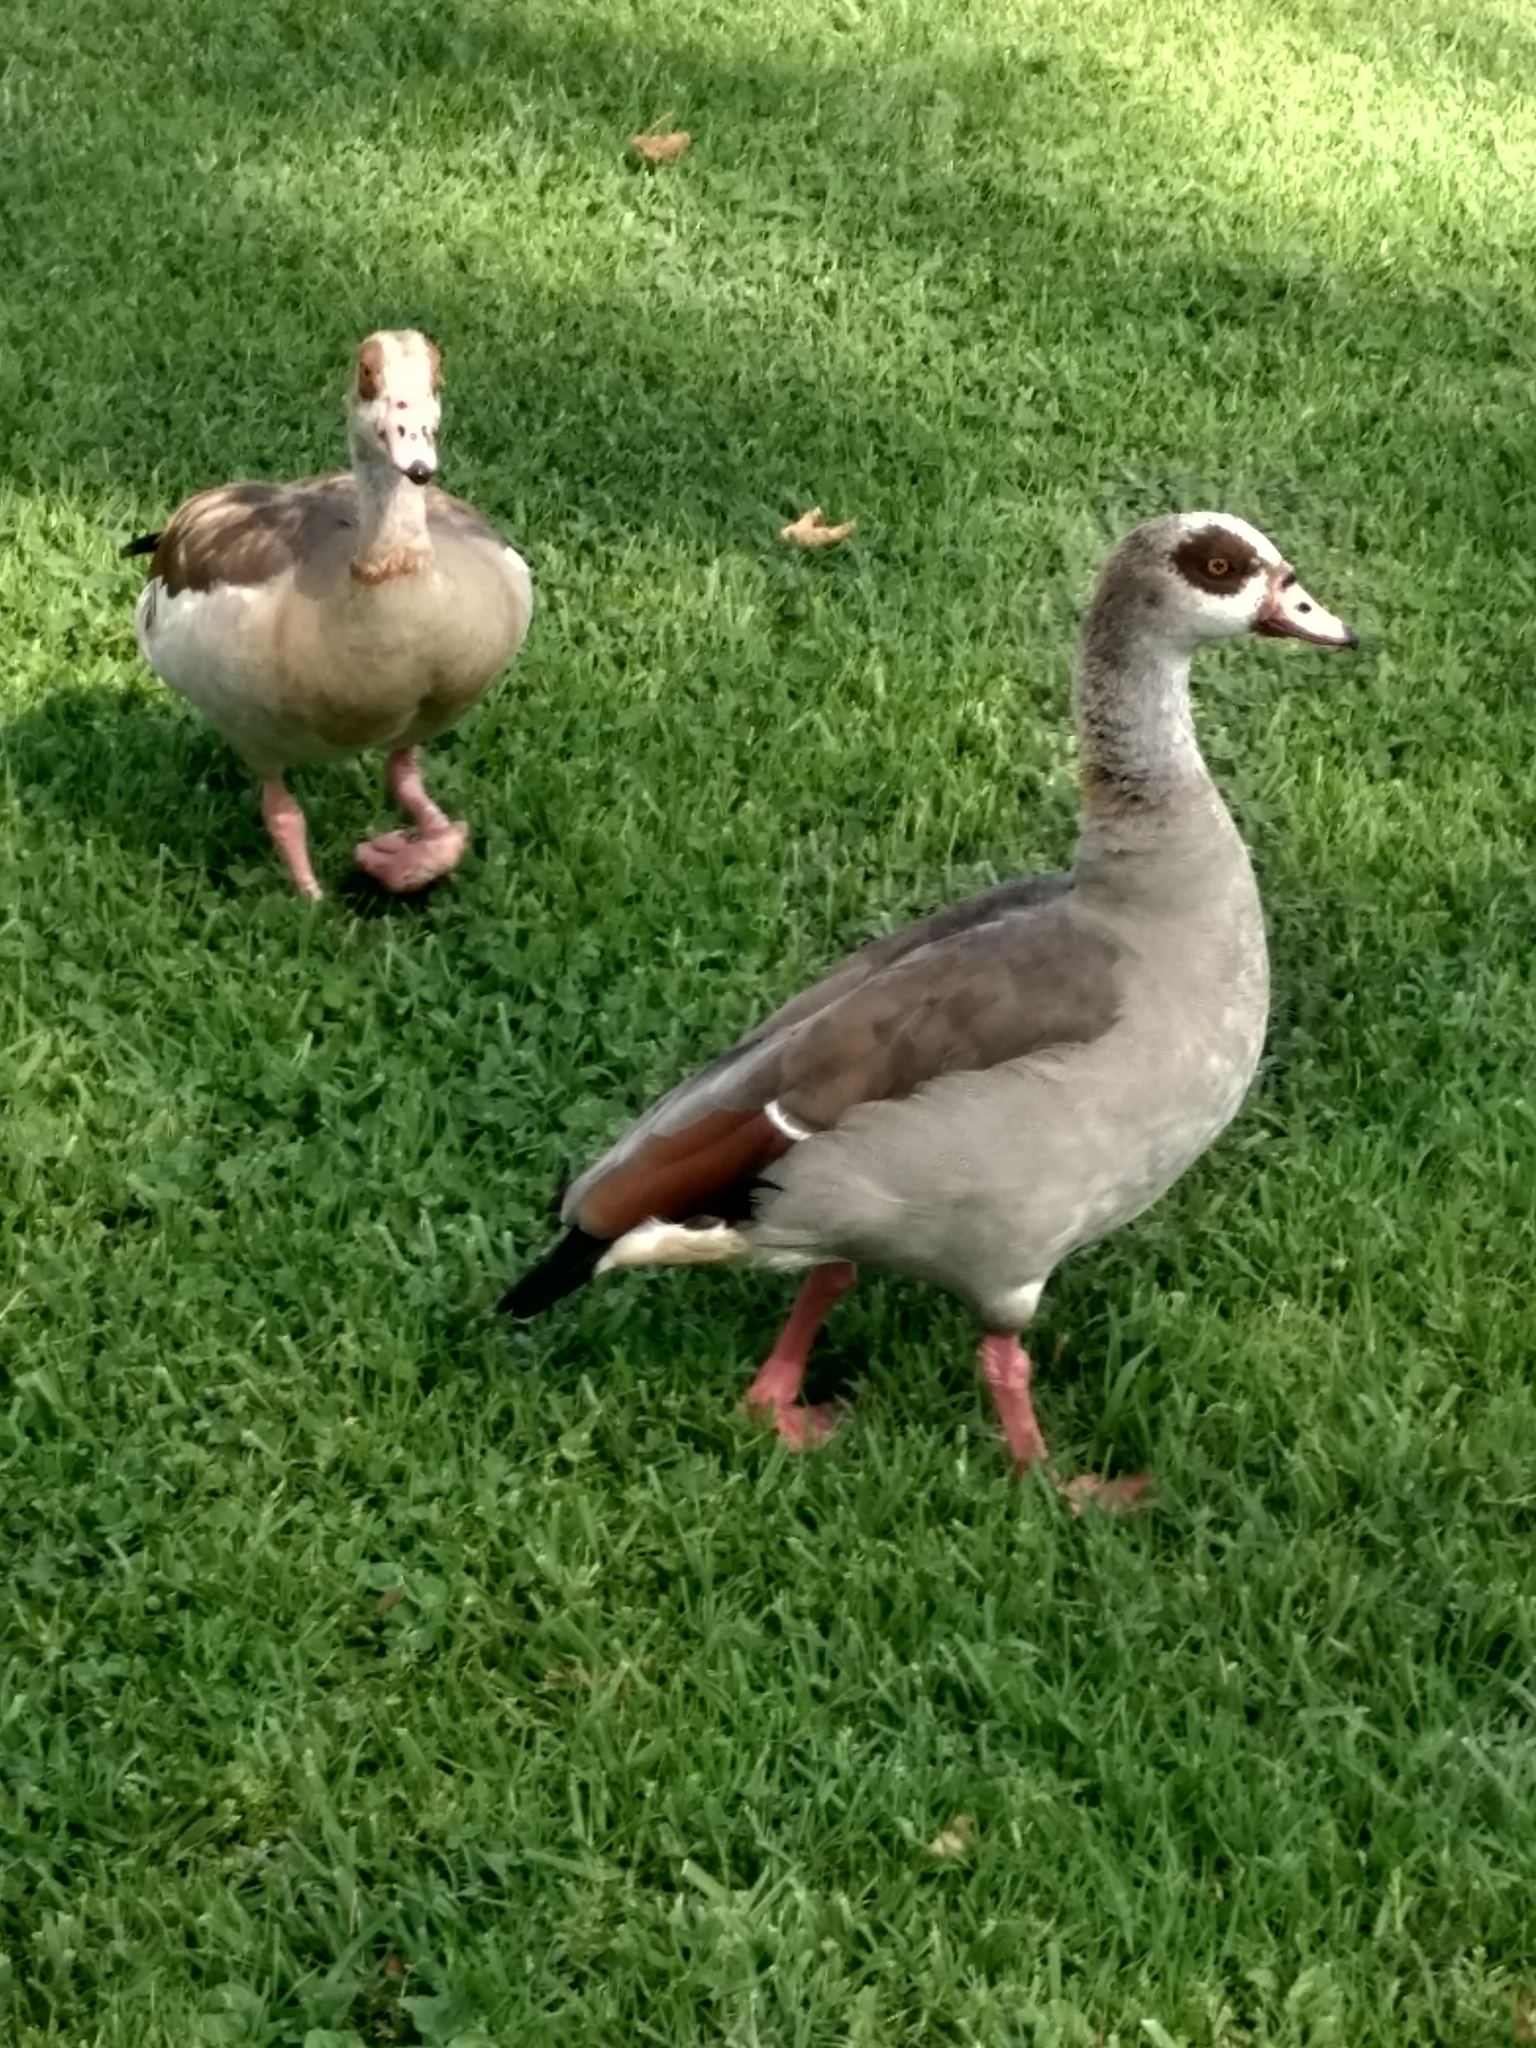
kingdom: Animalia
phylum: Chordata
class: Aves
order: Anseriformes
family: Anatidae
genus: Alopochen
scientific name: Alopochen aegyptiaca
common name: Egyptian goose
